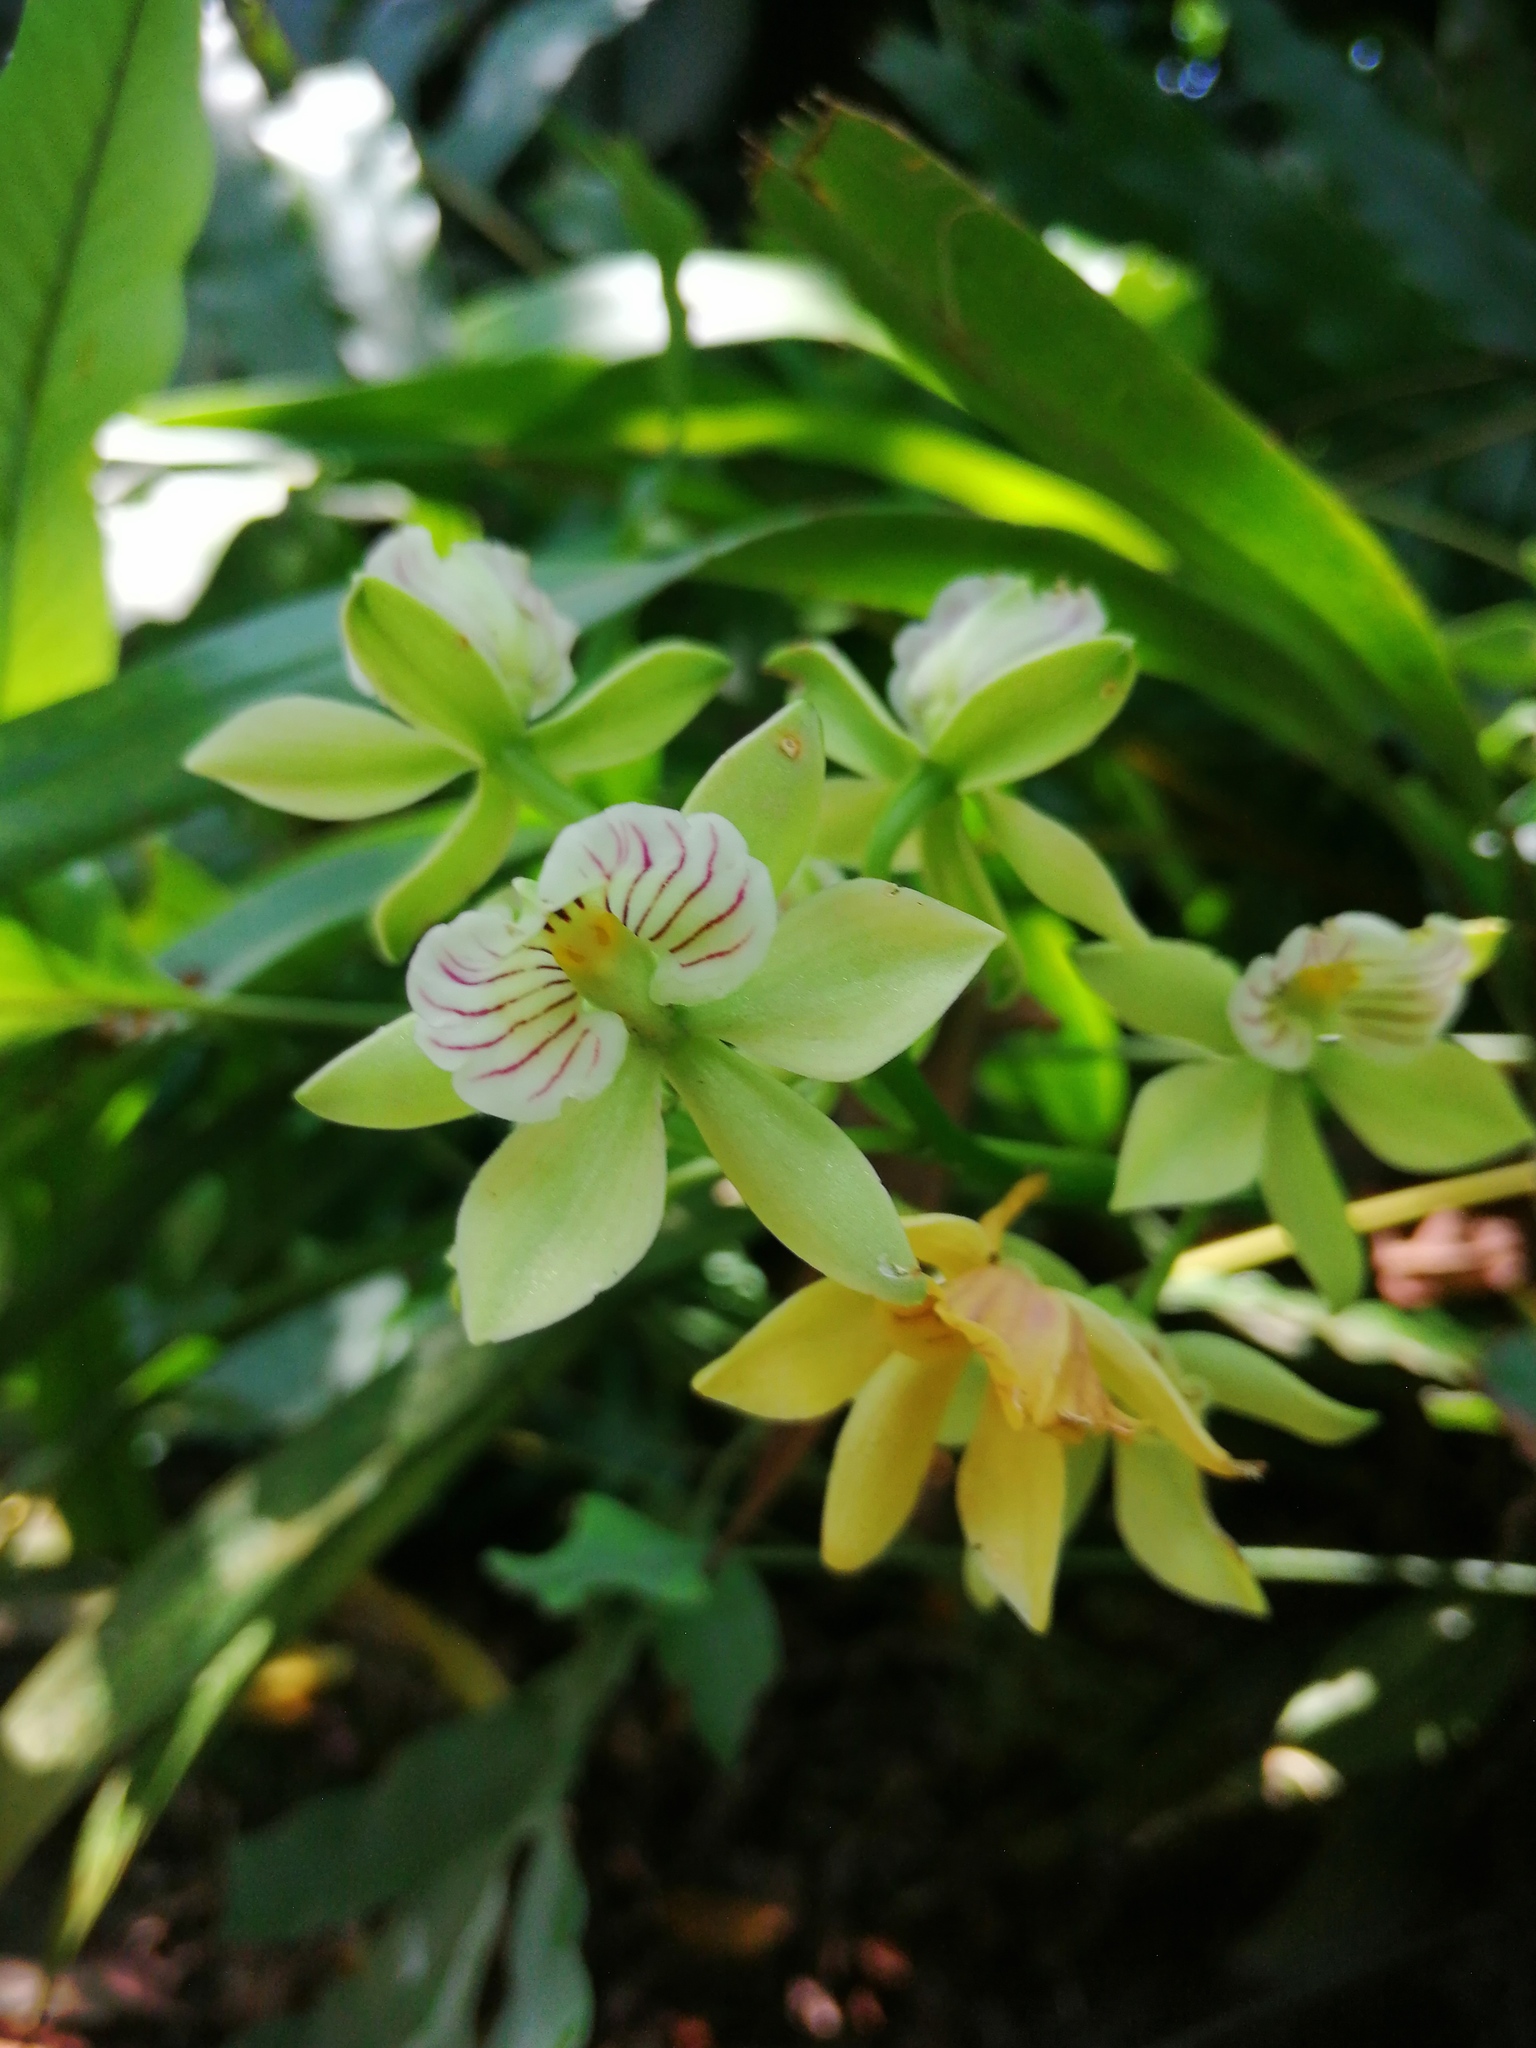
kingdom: Plantae
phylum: Tracheophyta
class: Liliopsida
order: Asparagales
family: Orchidaceae
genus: Prosthechea
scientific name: Prosthechea radiata
